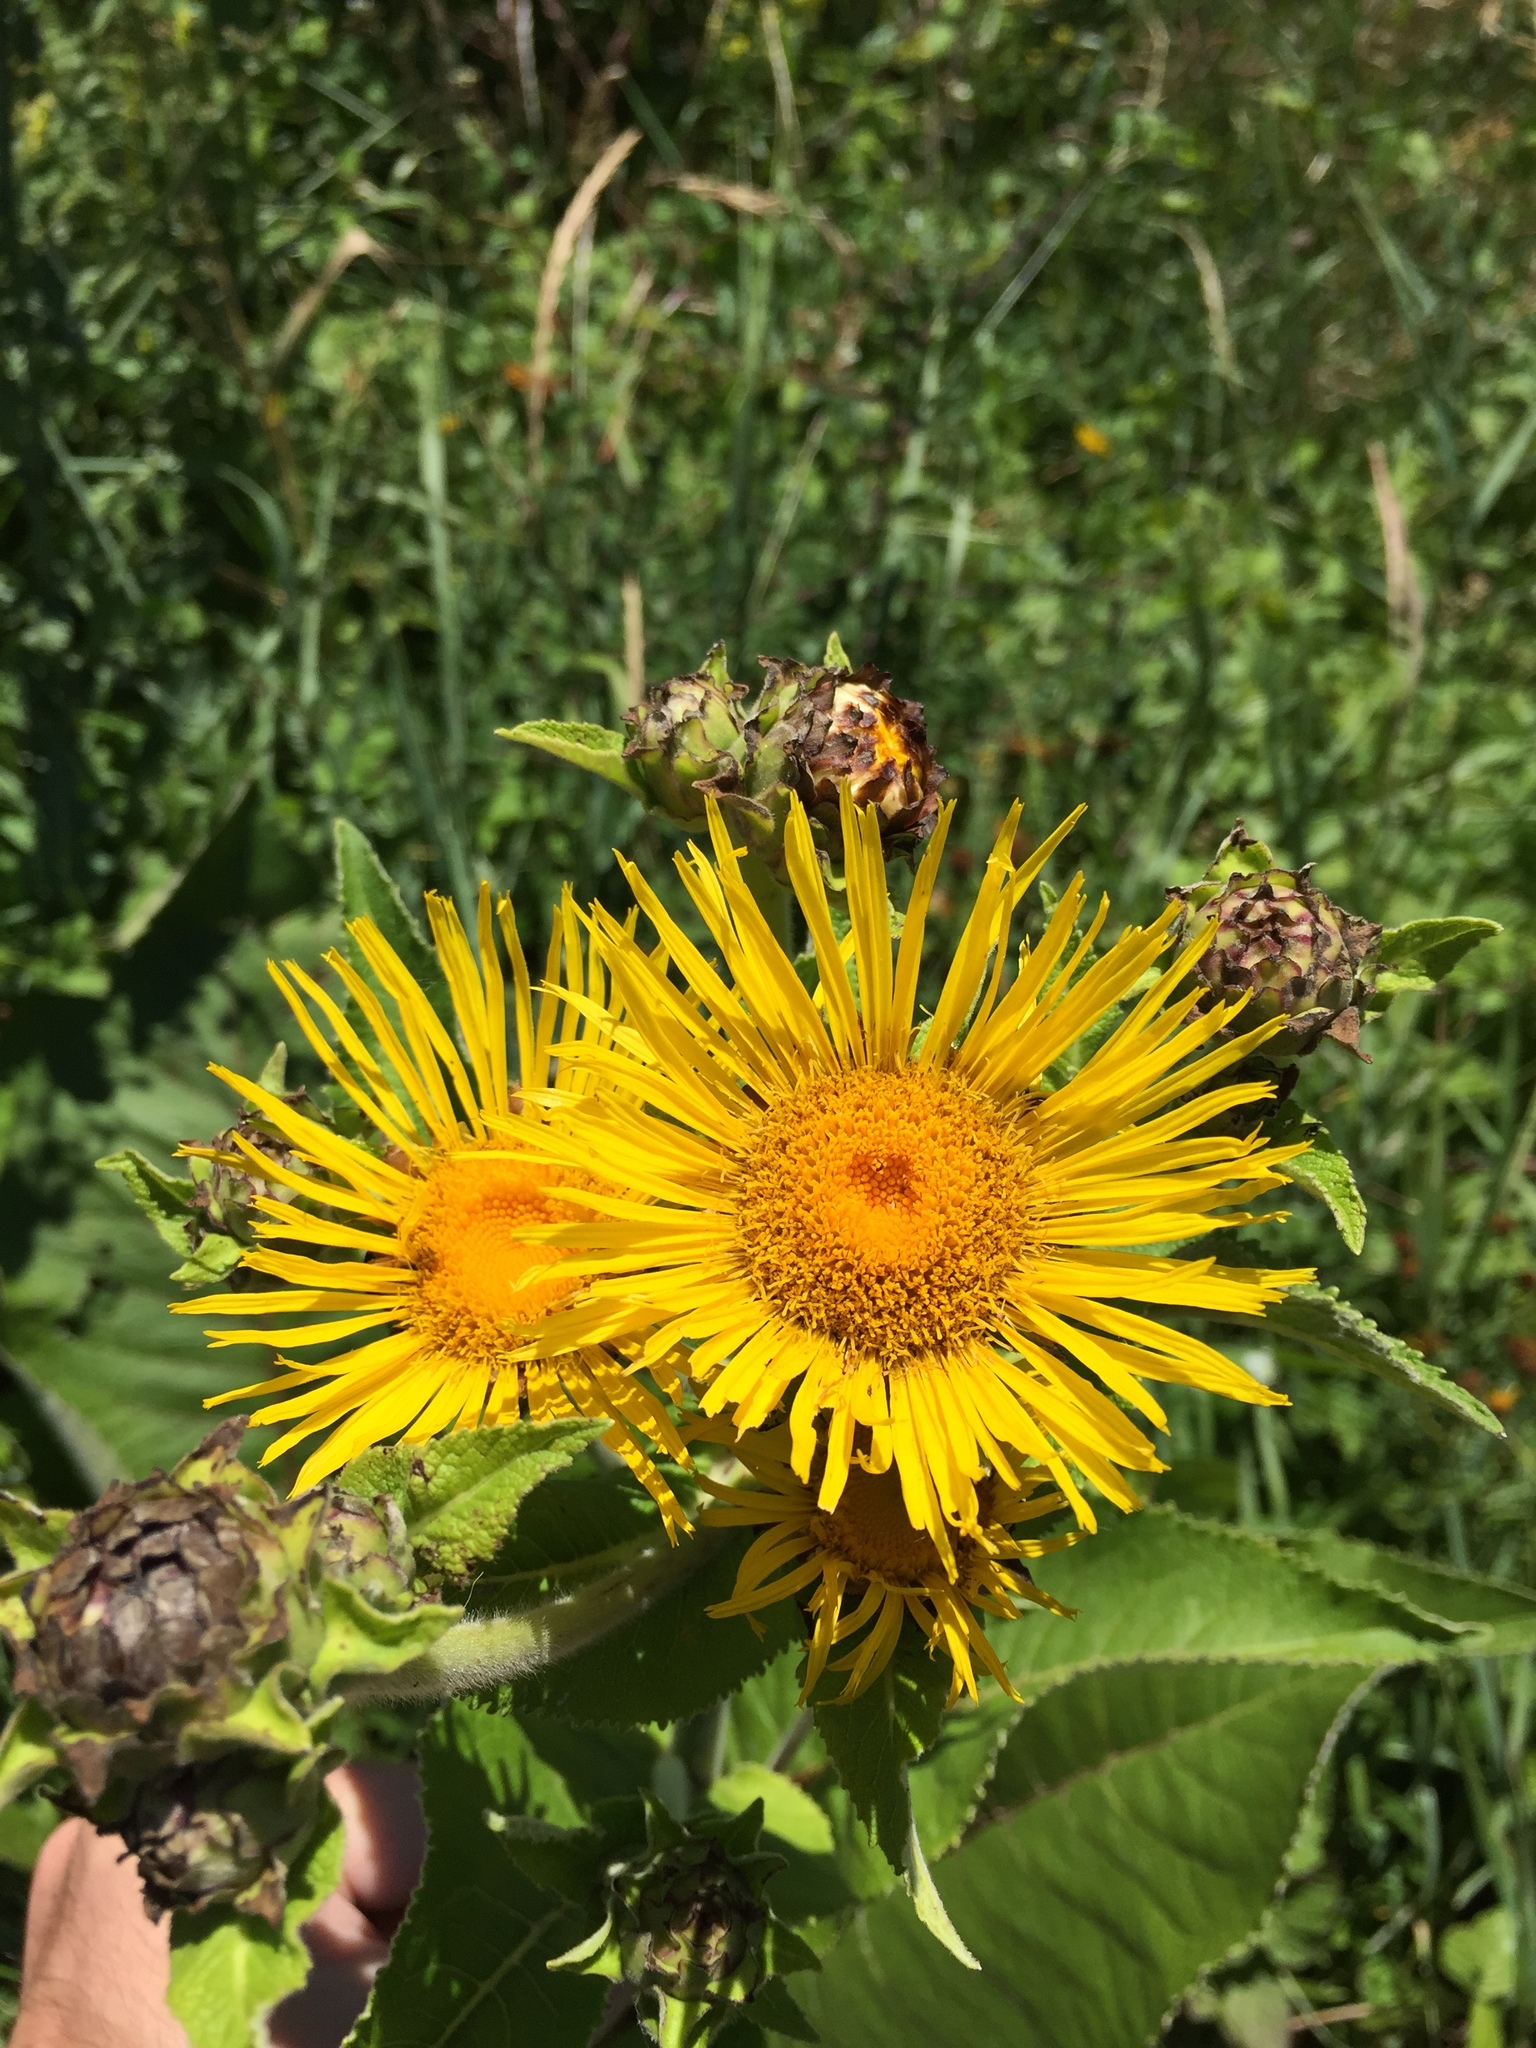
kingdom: Plantae
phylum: Tracheophyta
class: Magnoliopsida
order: Asterales
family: Asteraceae
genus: Inula
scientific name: Inula helenium
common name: Elecampane
